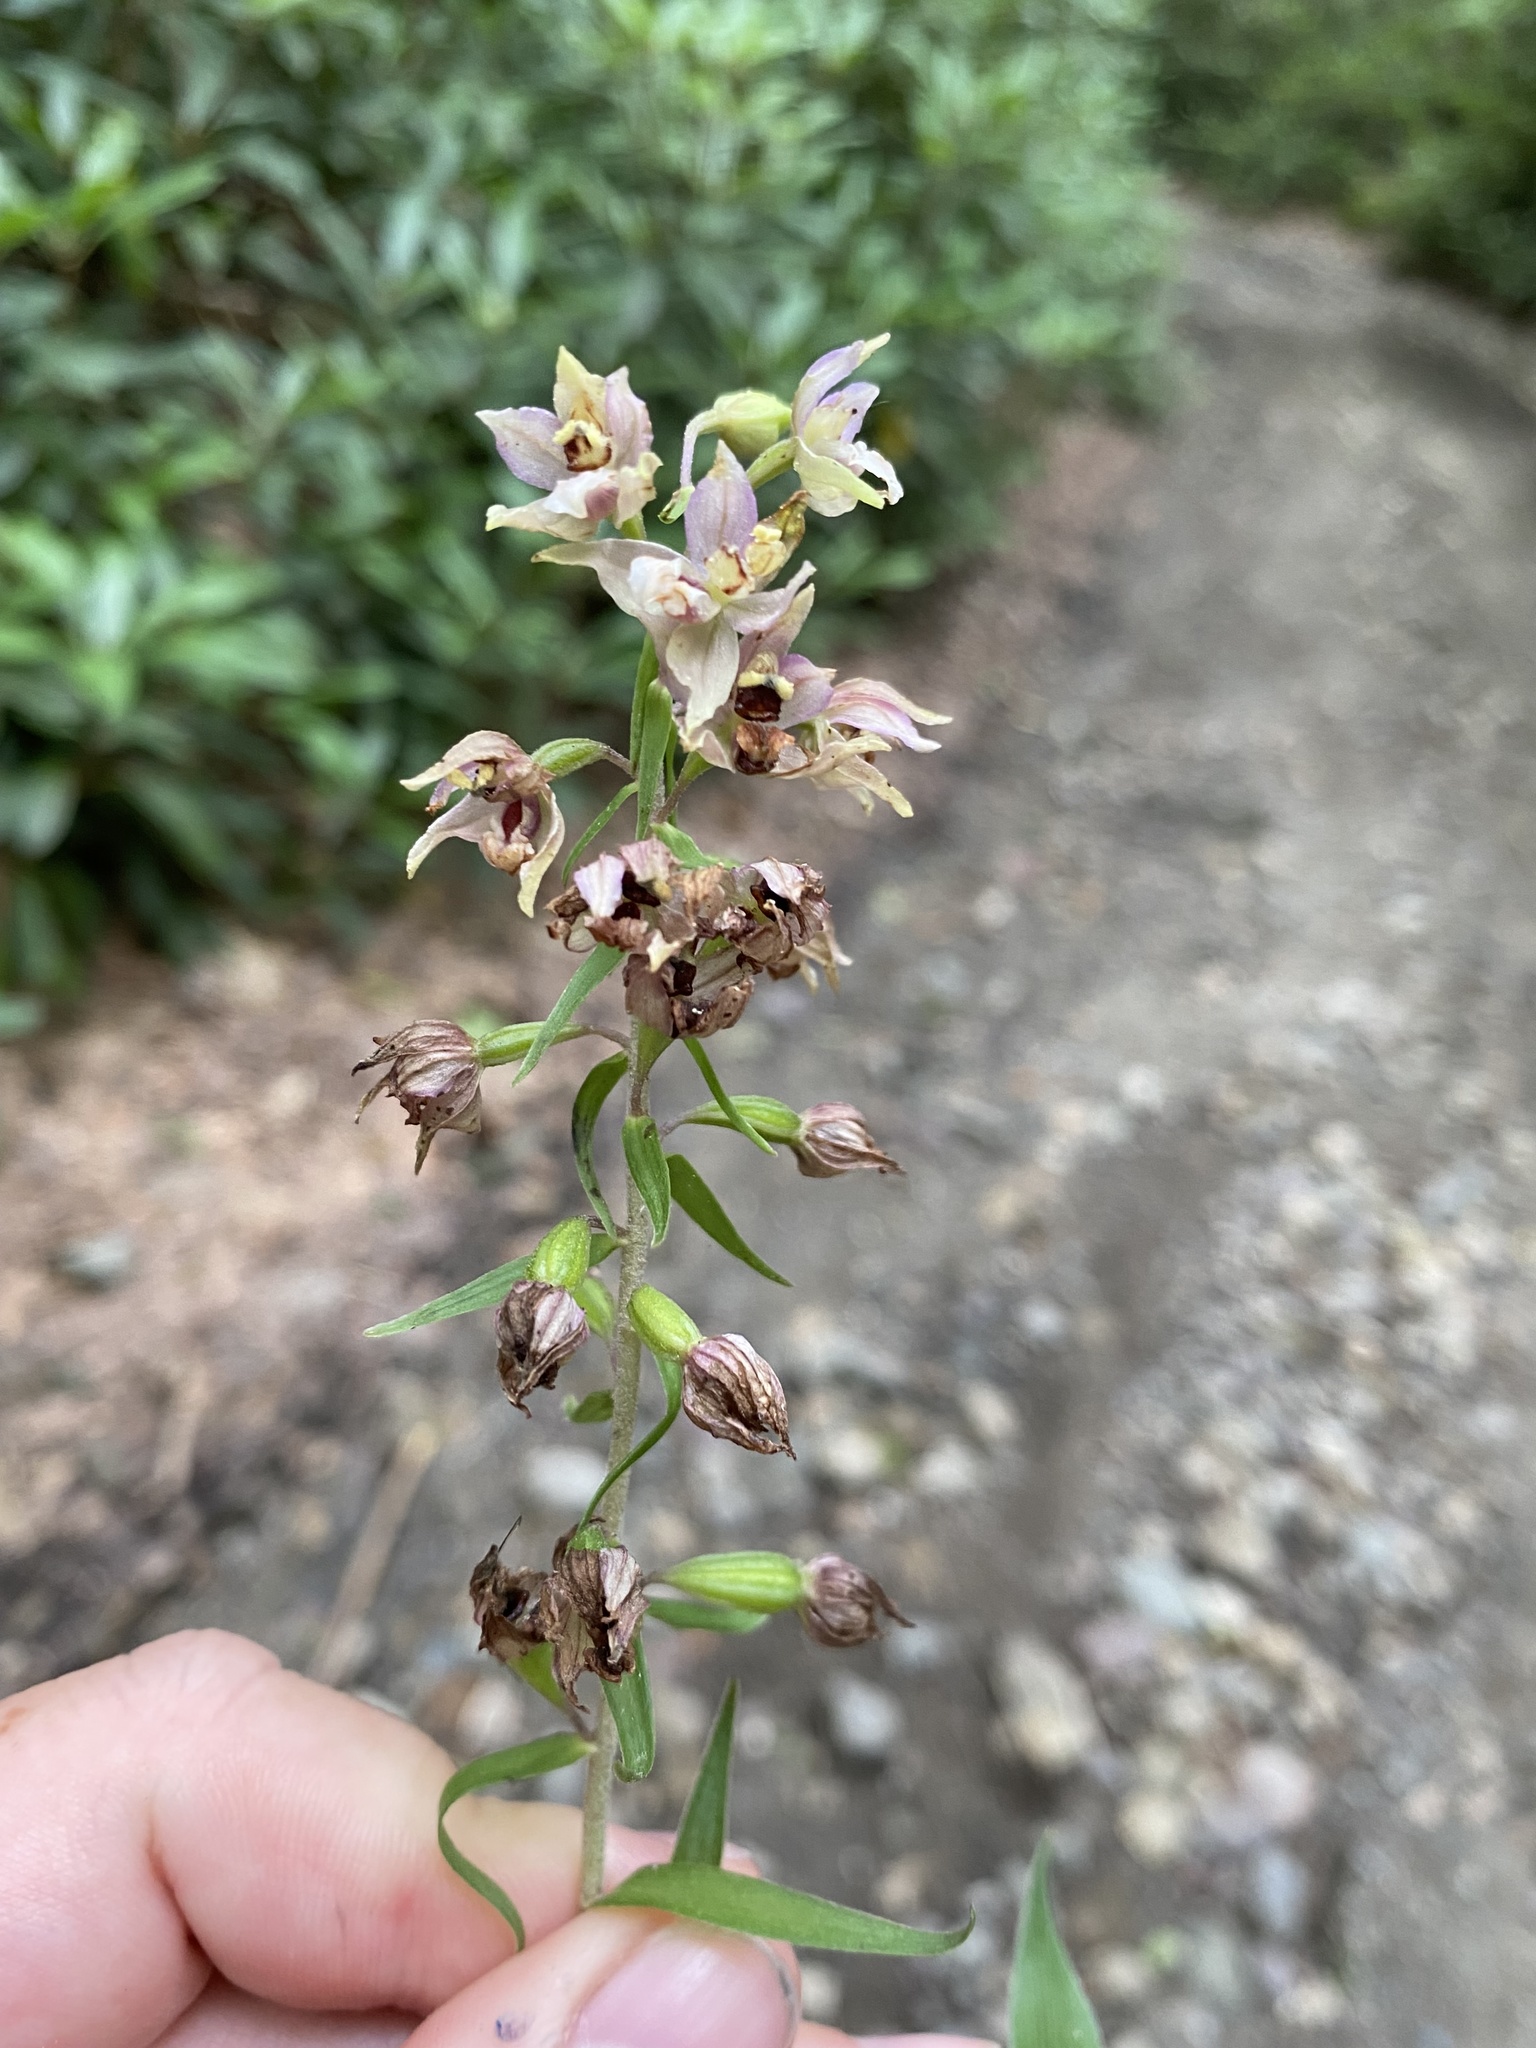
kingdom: Plantae
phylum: Tracheophyta
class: Liliopsida
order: Asparagales
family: Orchidaceae
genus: Epipactis
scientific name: Epipactis helleborine
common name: Broad-leaved helleborine
